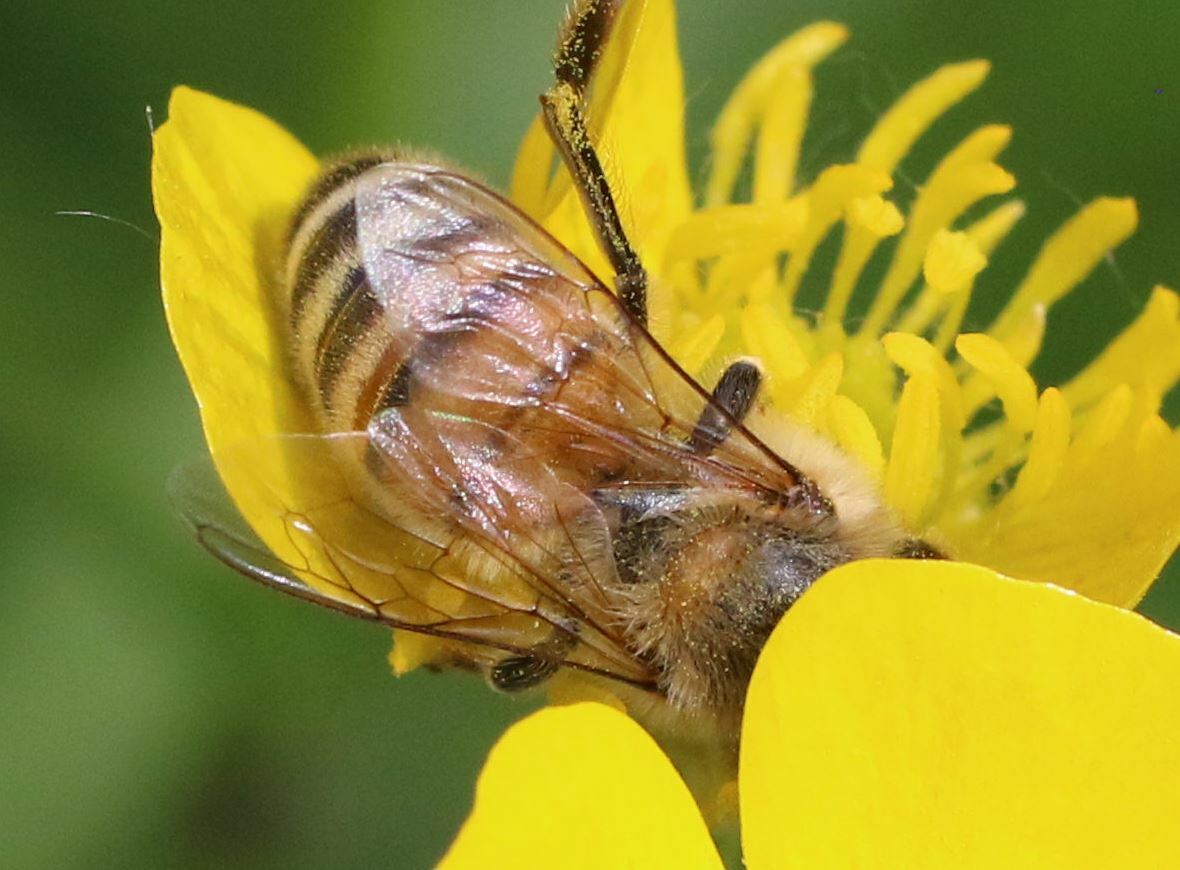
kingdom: Animalia
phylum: Arthropoda
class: Insecta
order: Hymenoptera
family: Apidae
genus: Apis
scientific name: Apis mellifera
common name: Honey bee
